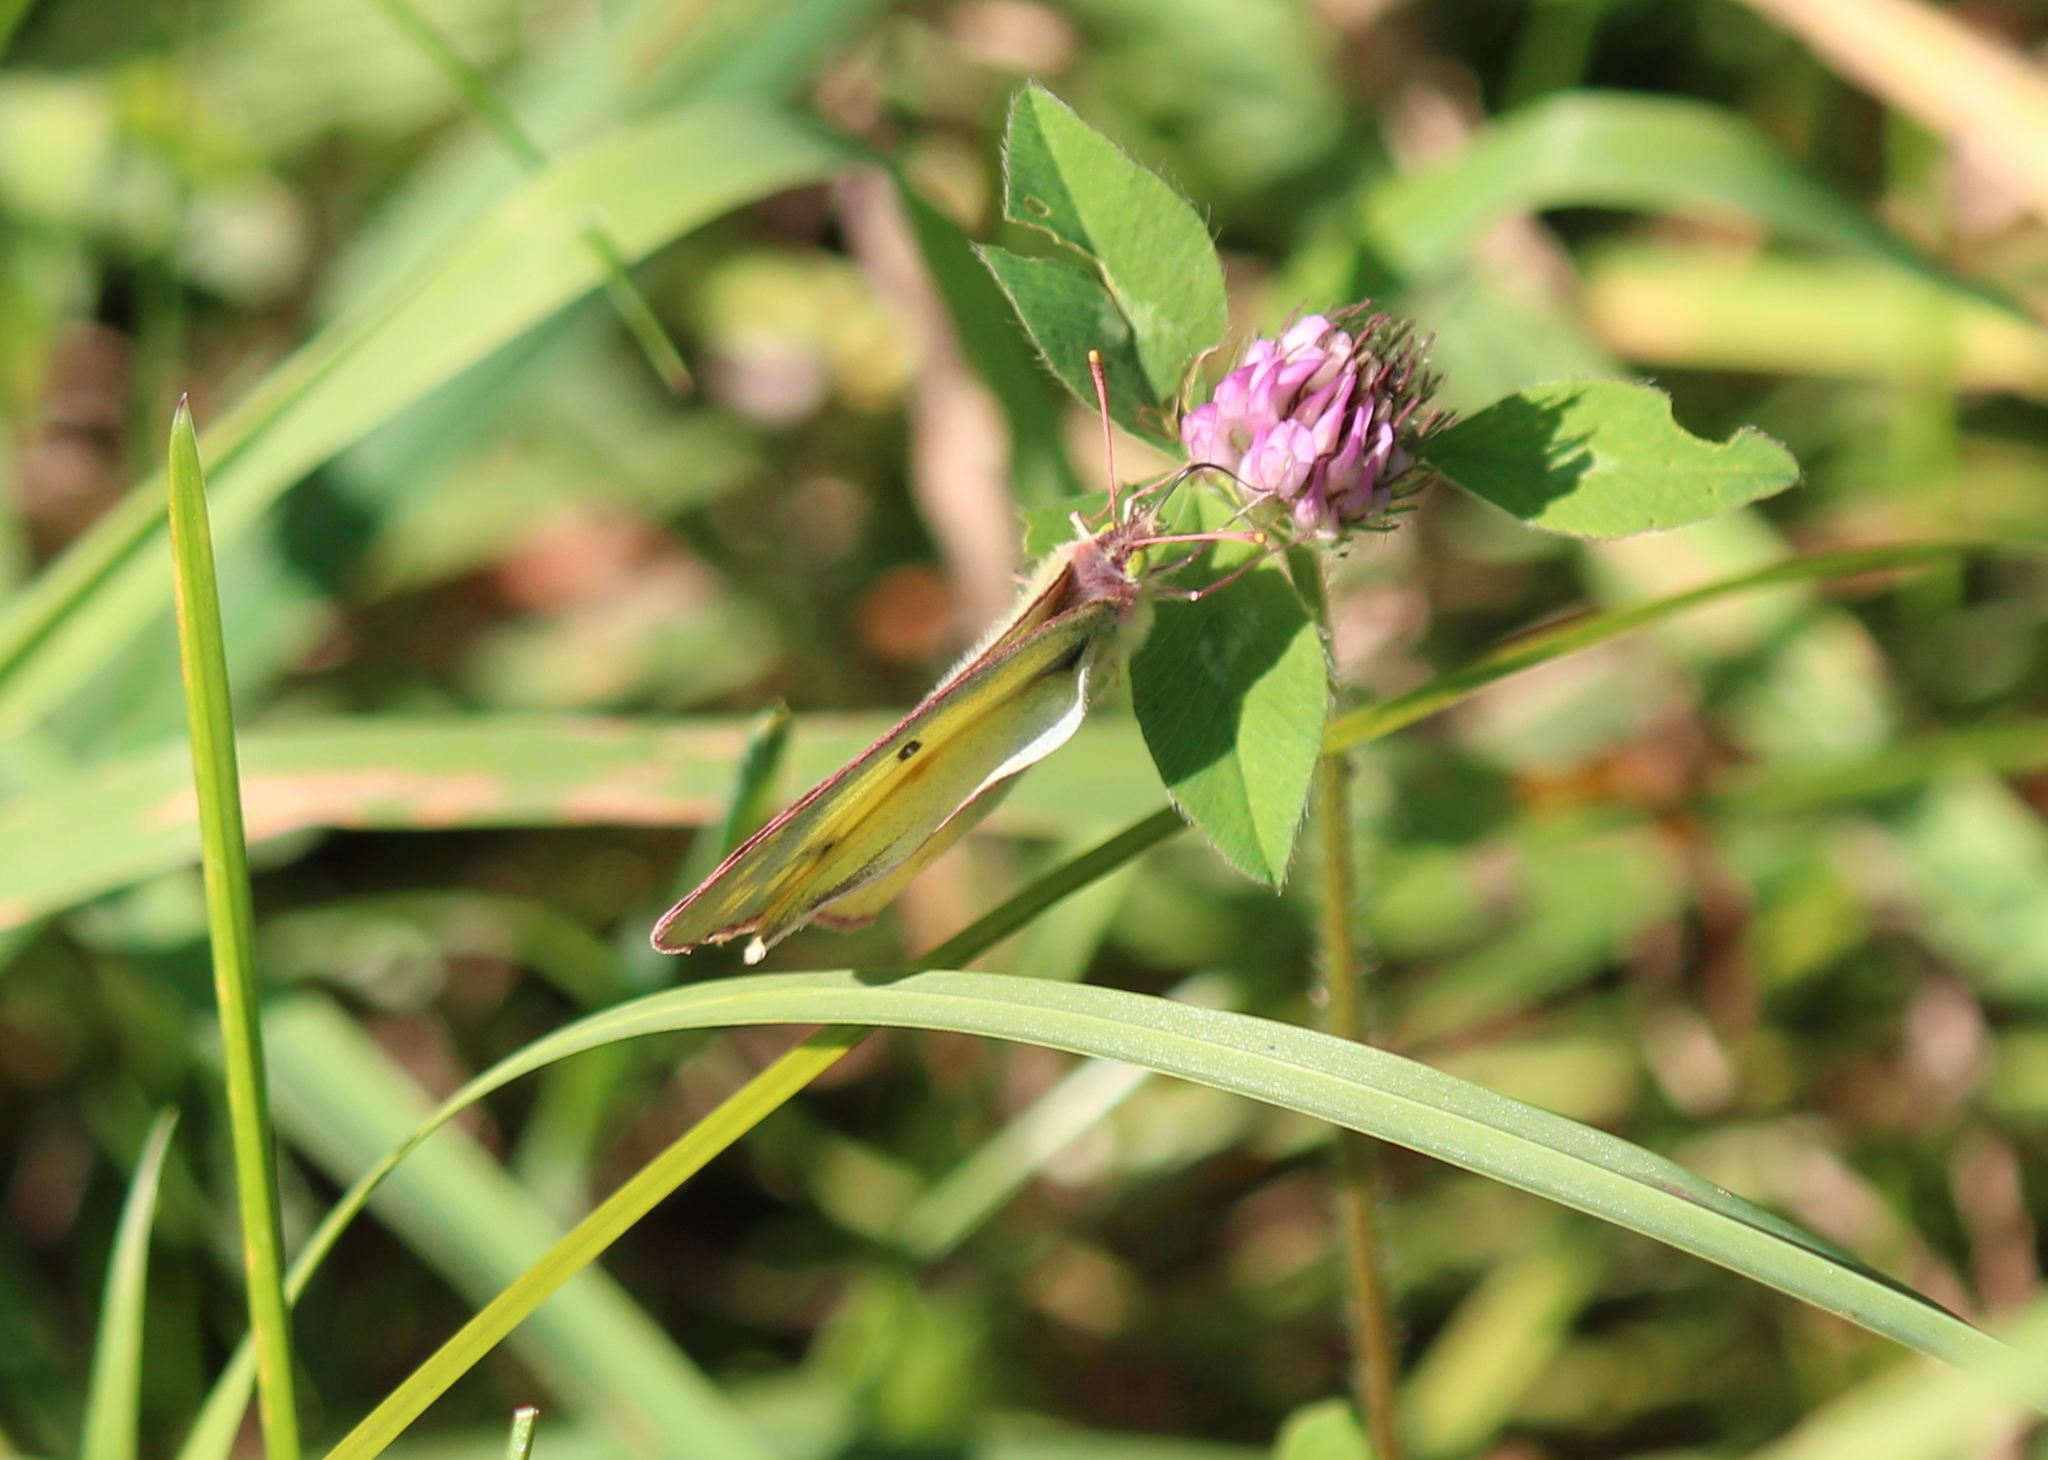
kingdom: Animalia
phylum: Arthropoda
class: Insecta
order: Lepidoptera
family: Pieridae
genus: Colias
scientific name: Colias philodice
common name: Clouded sulphur
